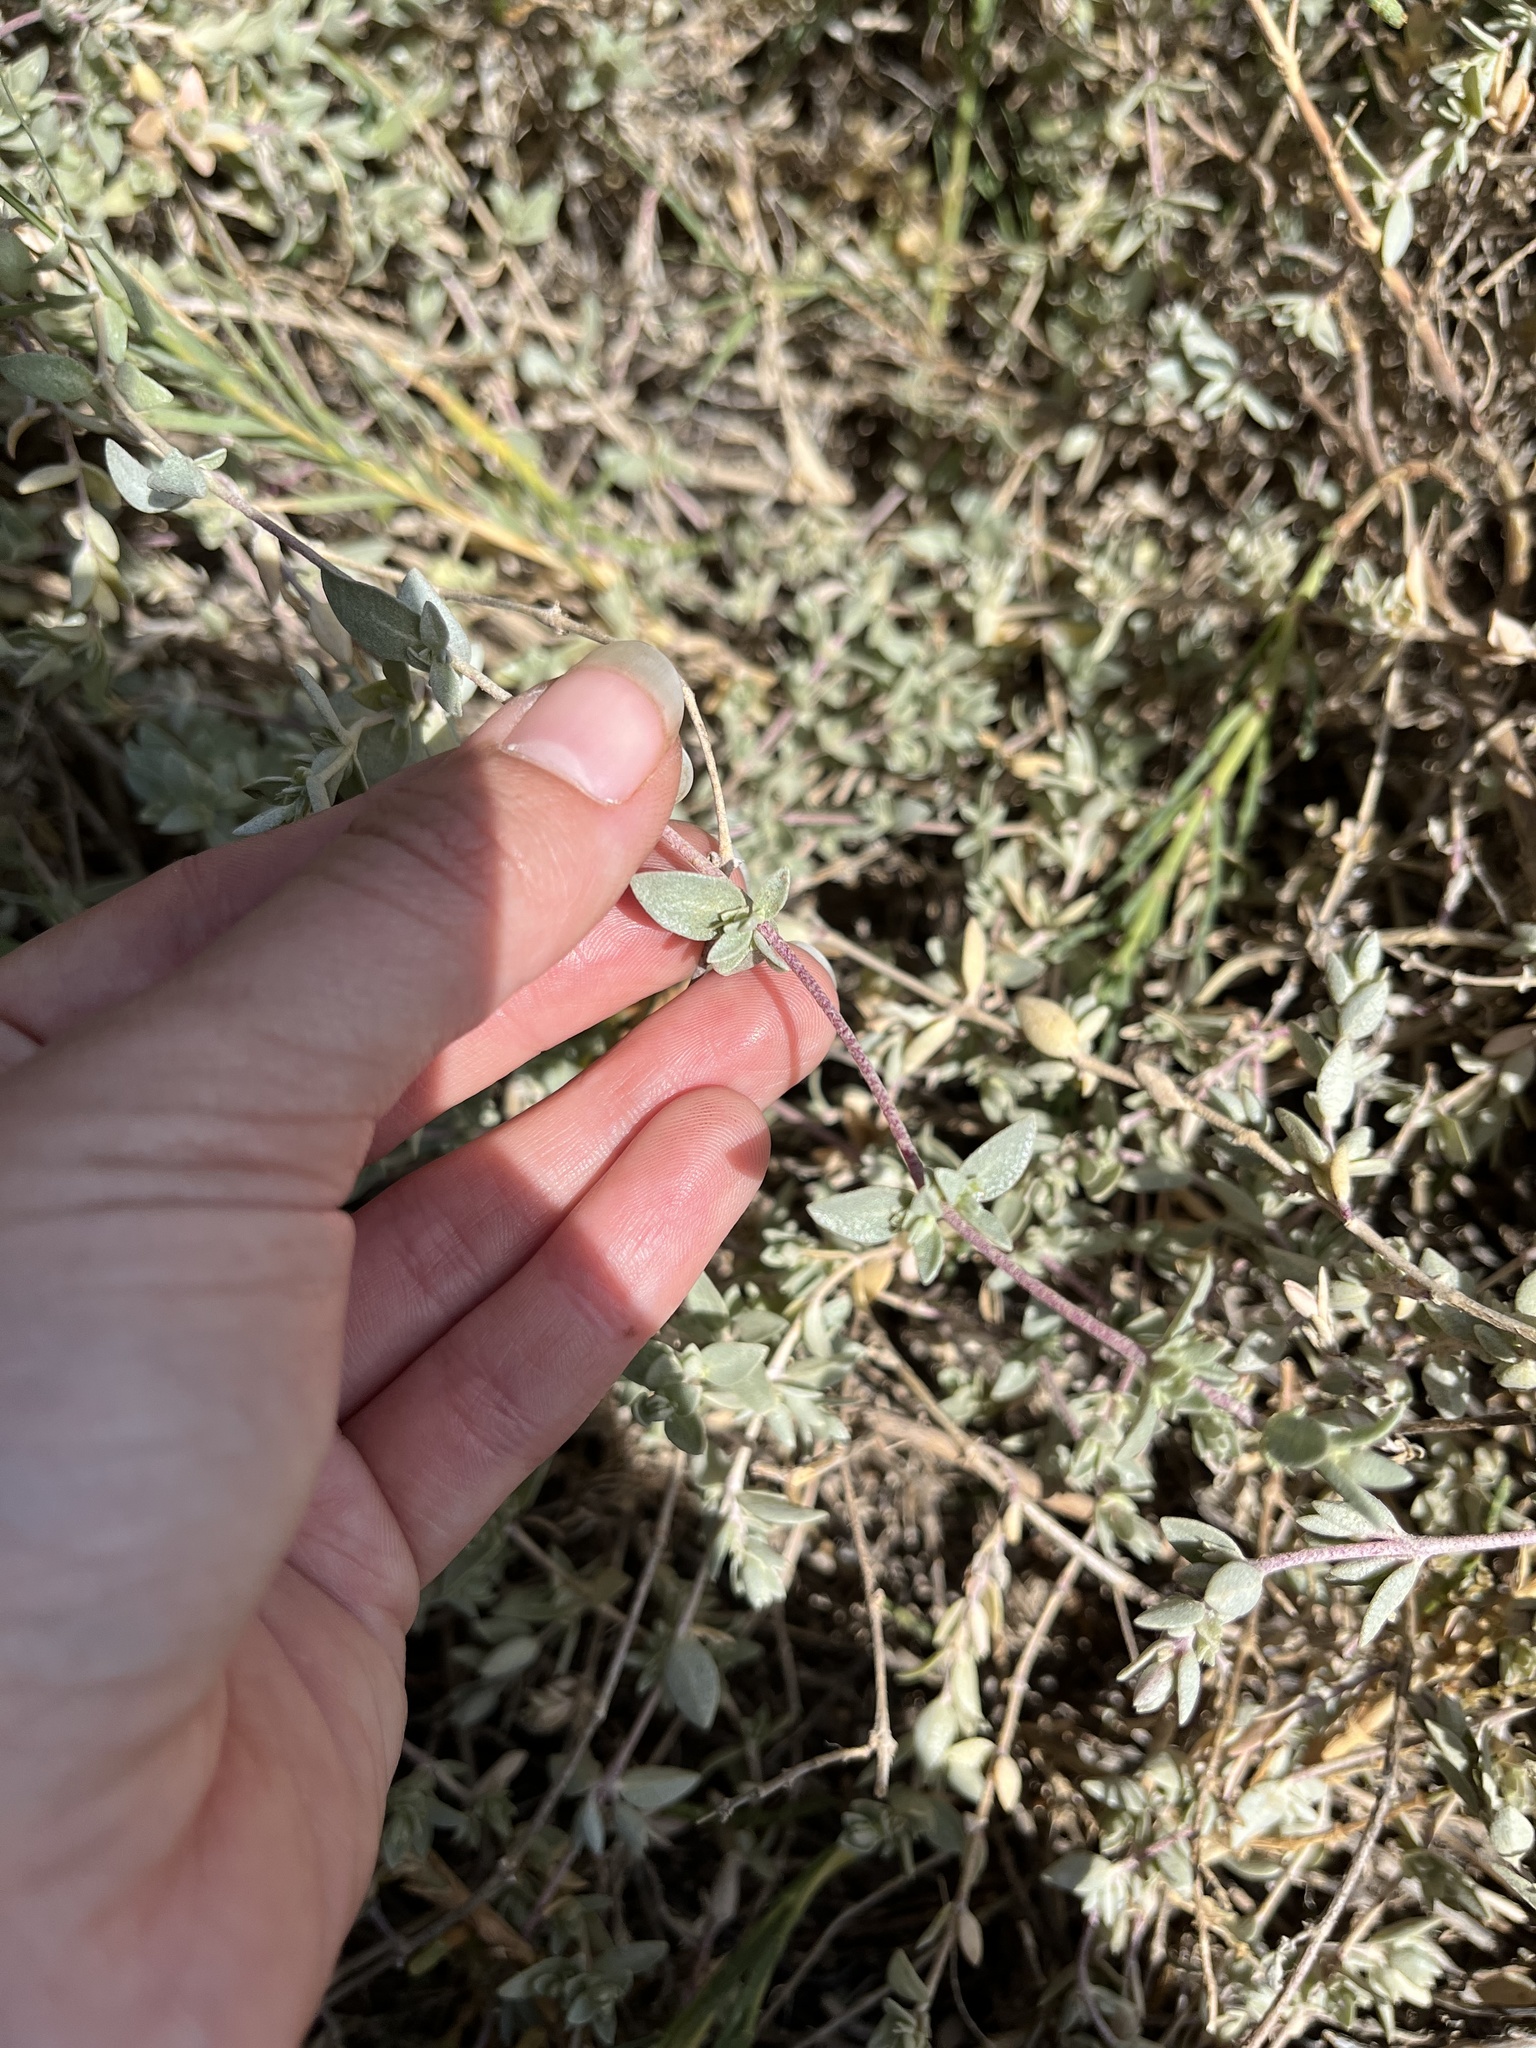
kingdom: Plantae
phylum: Tracheophyta
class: Magnoliopsida
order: Caryophyllales
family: Amaranthaceae
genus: Atriplex
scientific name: Atriplex watsonii
